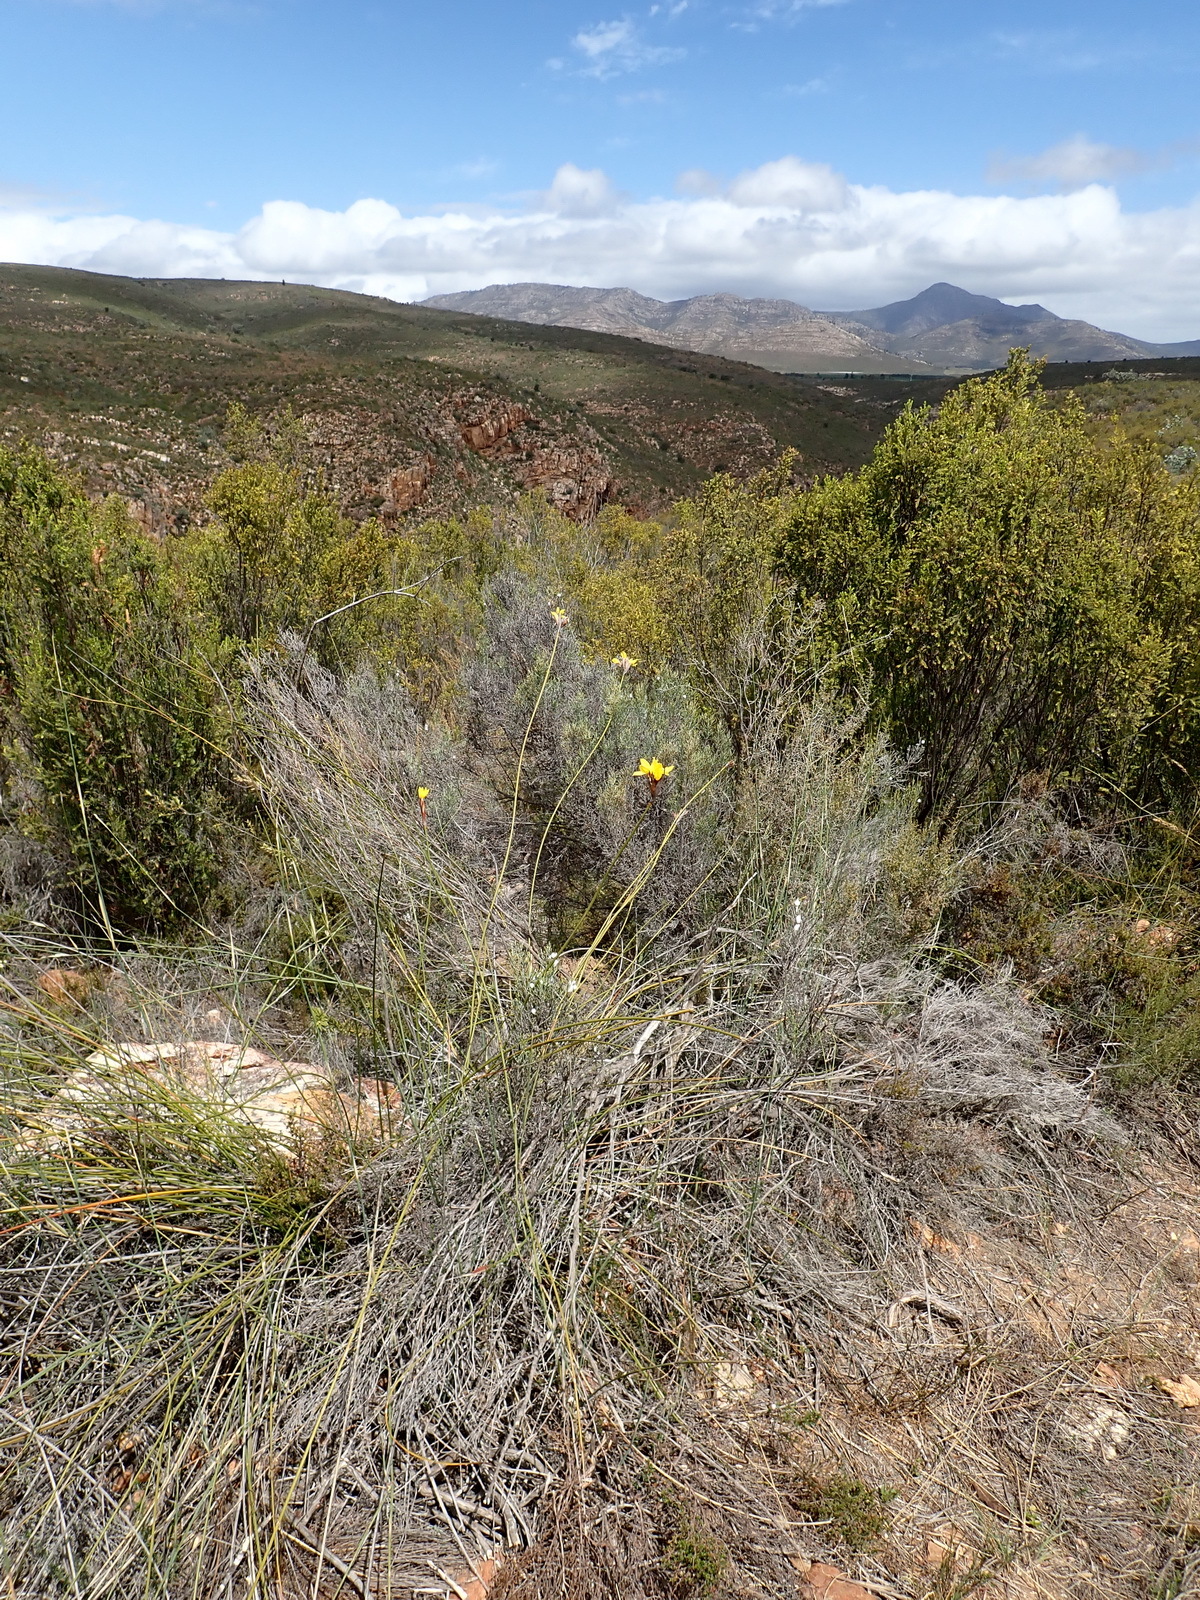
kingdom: Plantae
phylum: Tracheophyta
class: Liliopsida
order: Asparagales
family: Iridaceae
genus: Bobartia
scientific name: Bobartia macrospatha
